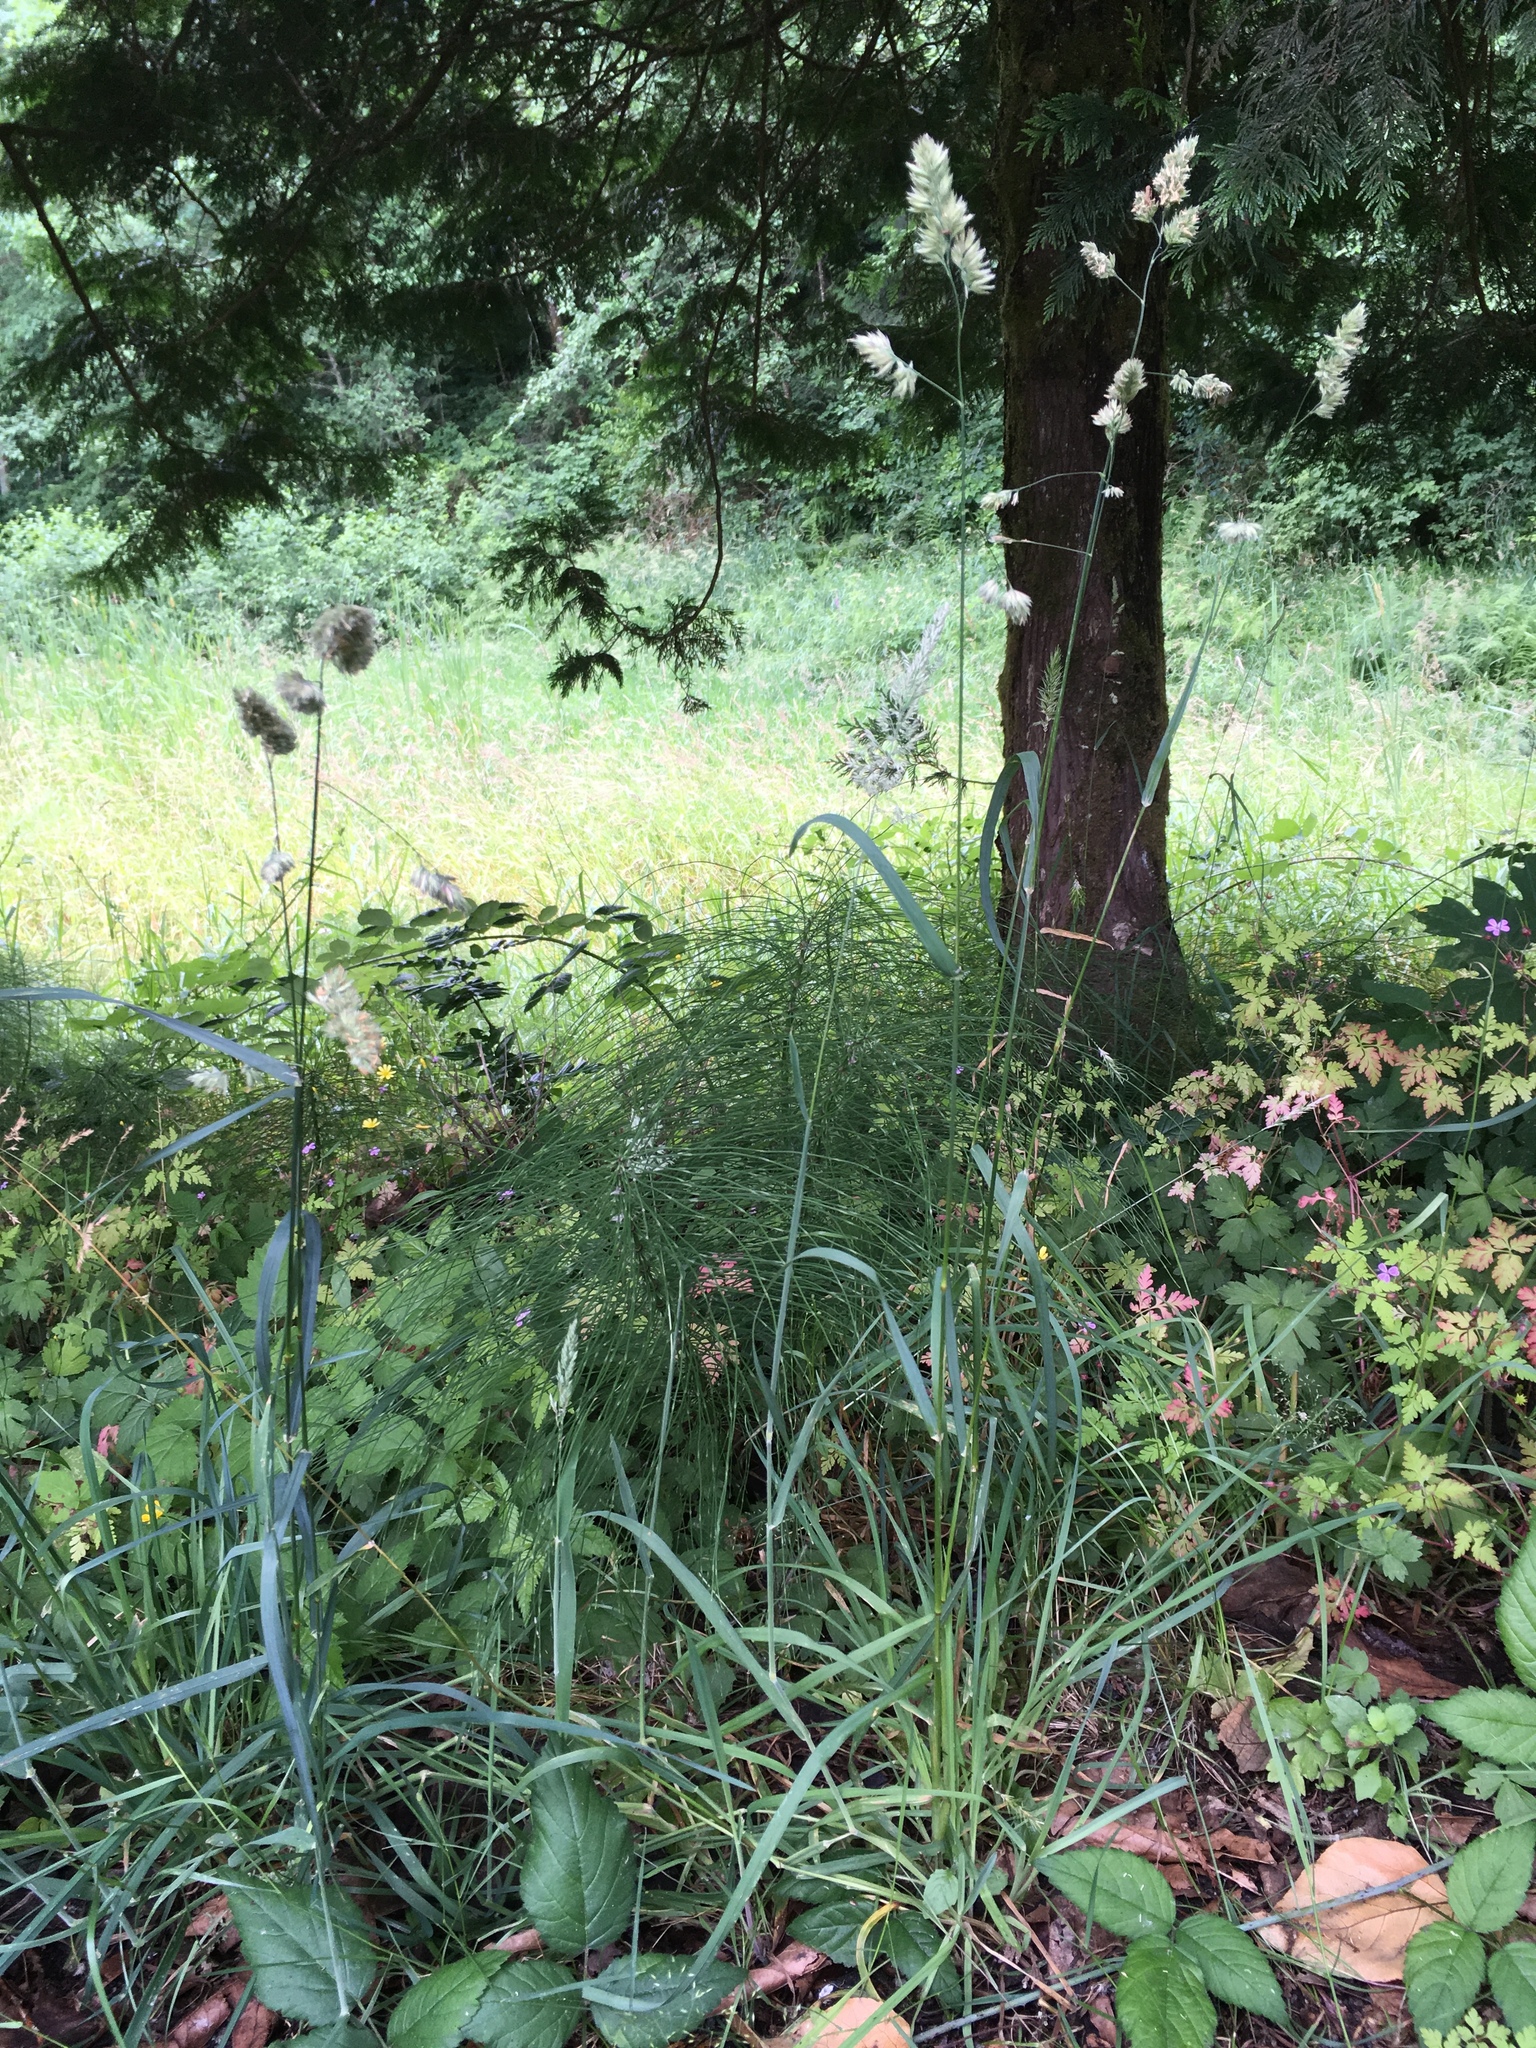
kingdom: Plantae
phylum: Tracheophyta
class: Liliopsida
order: Poales
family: Poaceae
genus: Dactylis
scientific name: Dactylis glomerata
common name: Orchardgrass
